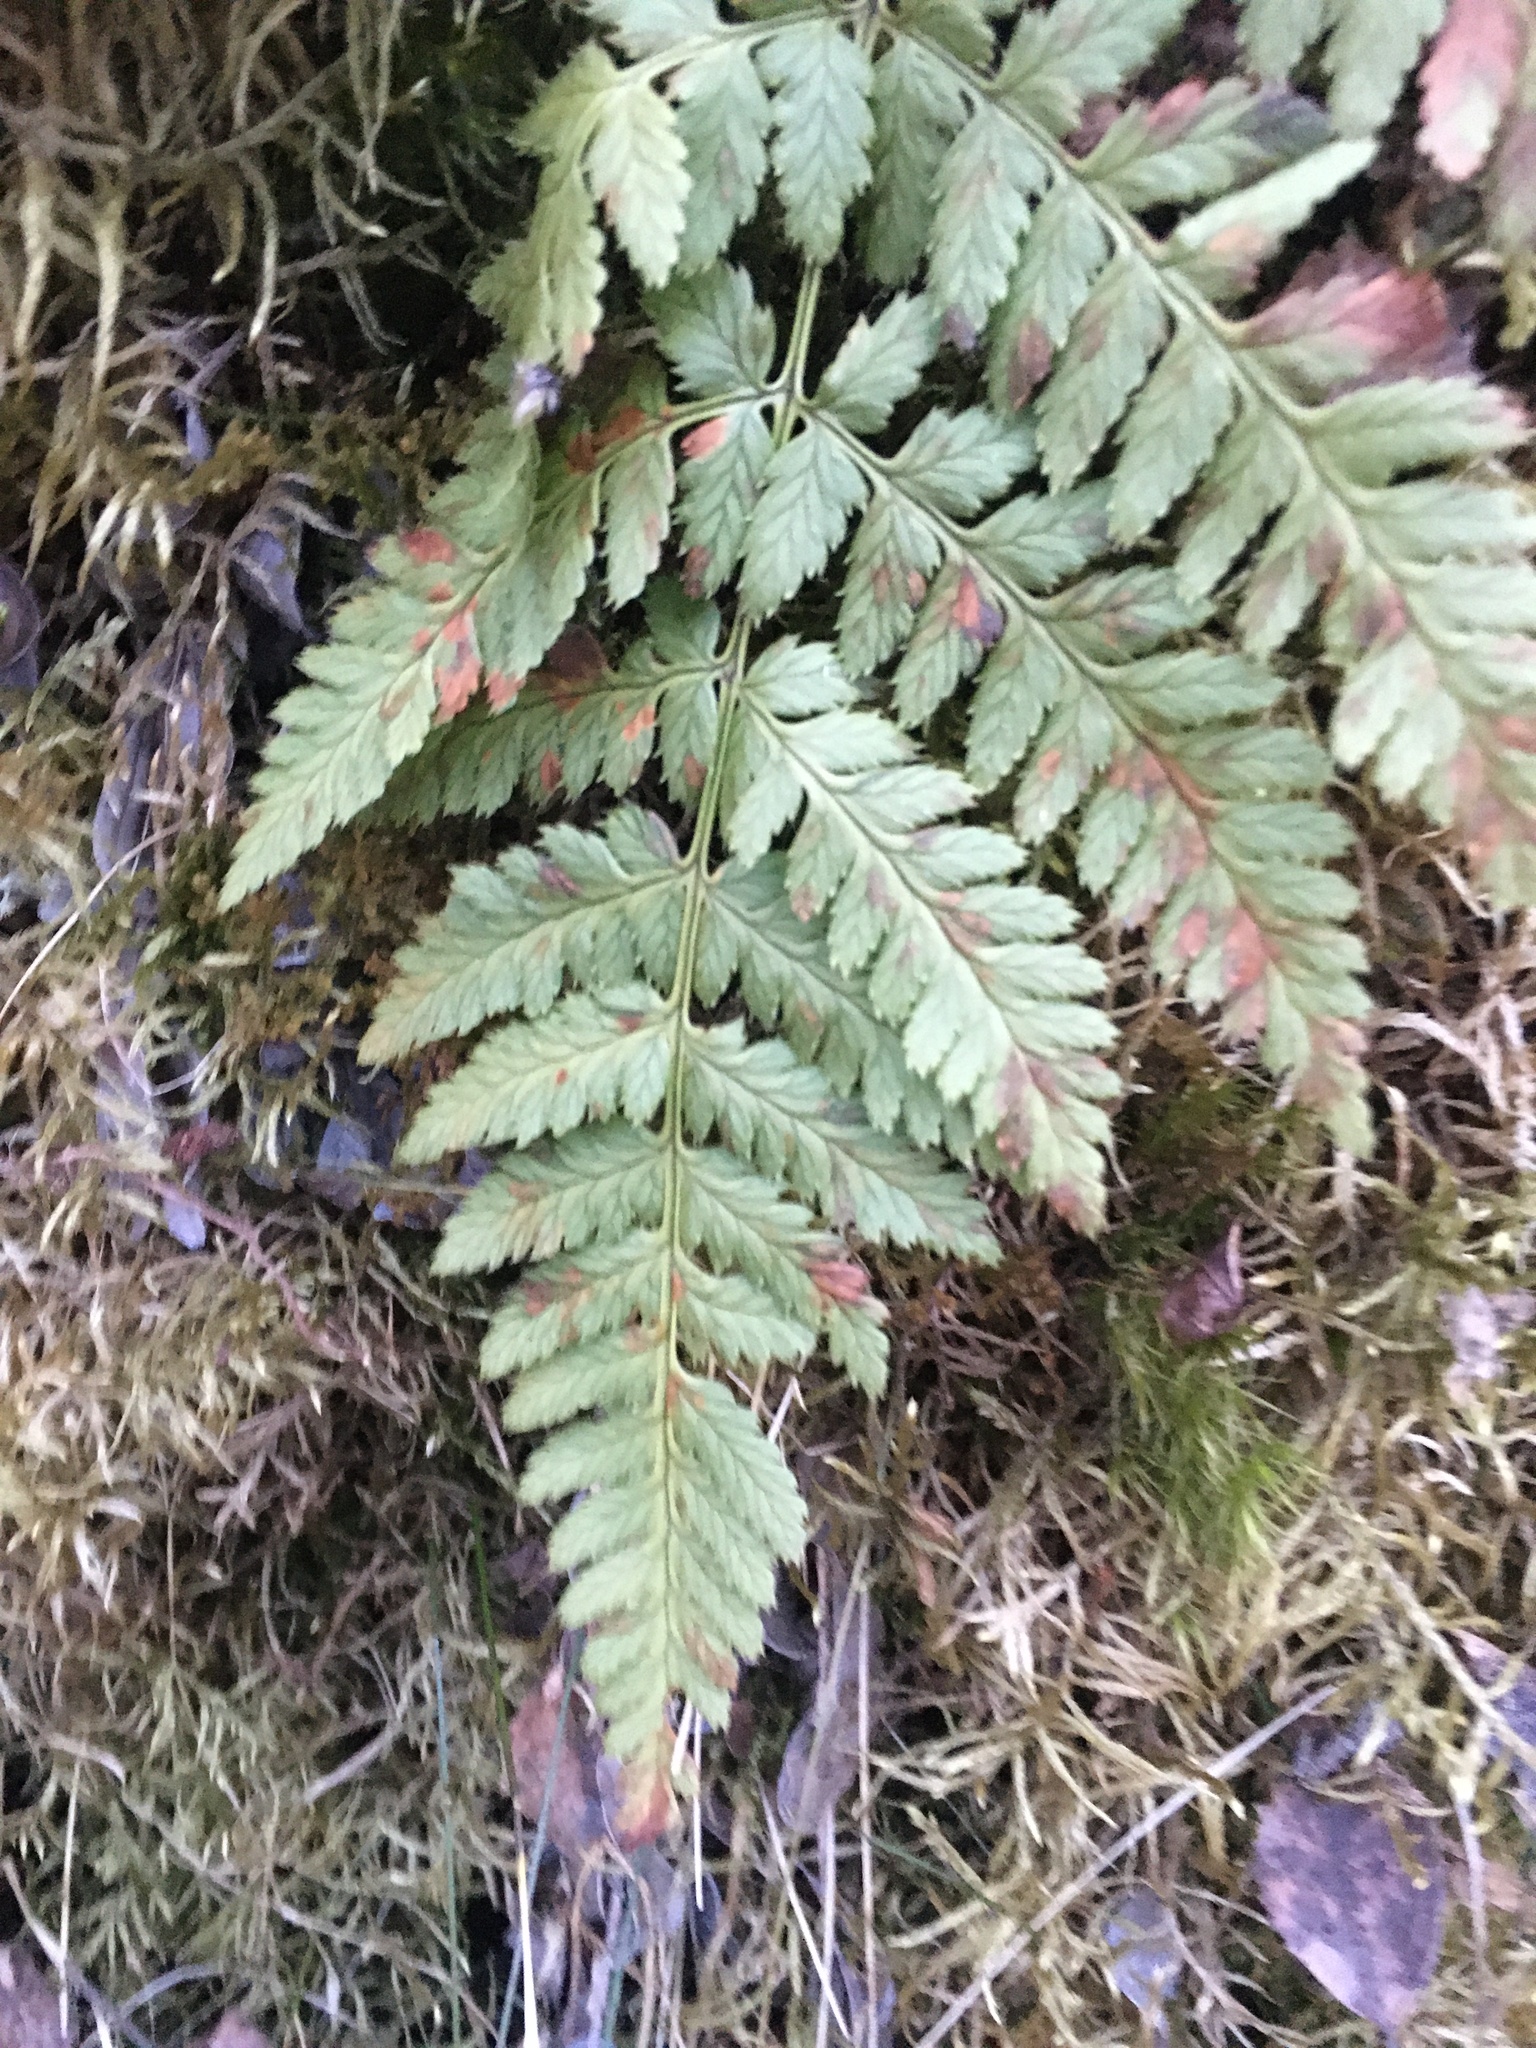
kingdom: Plantae
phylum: Tracheophyta
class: Polypodiopsida
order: Polypodiales
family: Dryopteridaceae
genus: Dryopteris
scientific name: Dryopteris carthusiana
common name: Narrow buckler-fern
